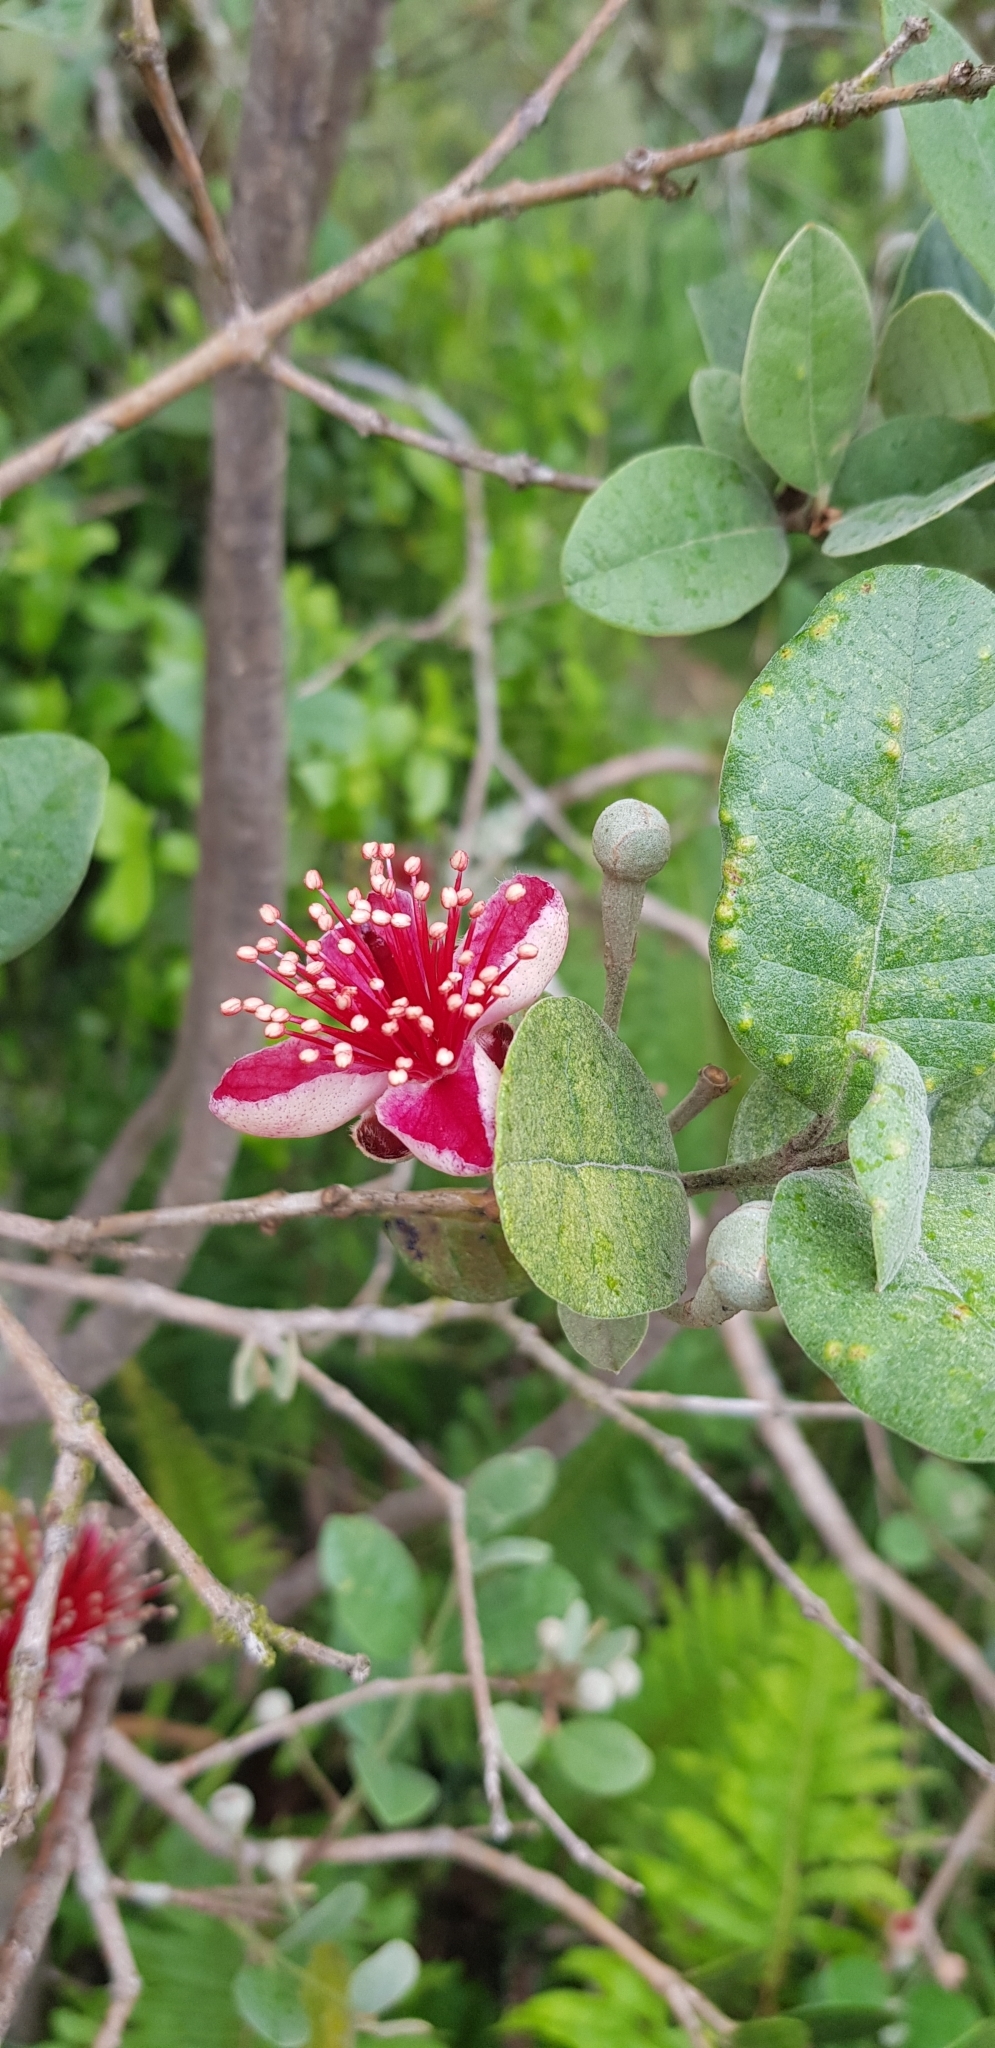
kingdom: Plantae
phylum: Tracheophyta
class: Magnoliopsida
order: Myrtales
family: Myrtaceae
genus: Feijoa
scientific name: Feijoa sellowiana
